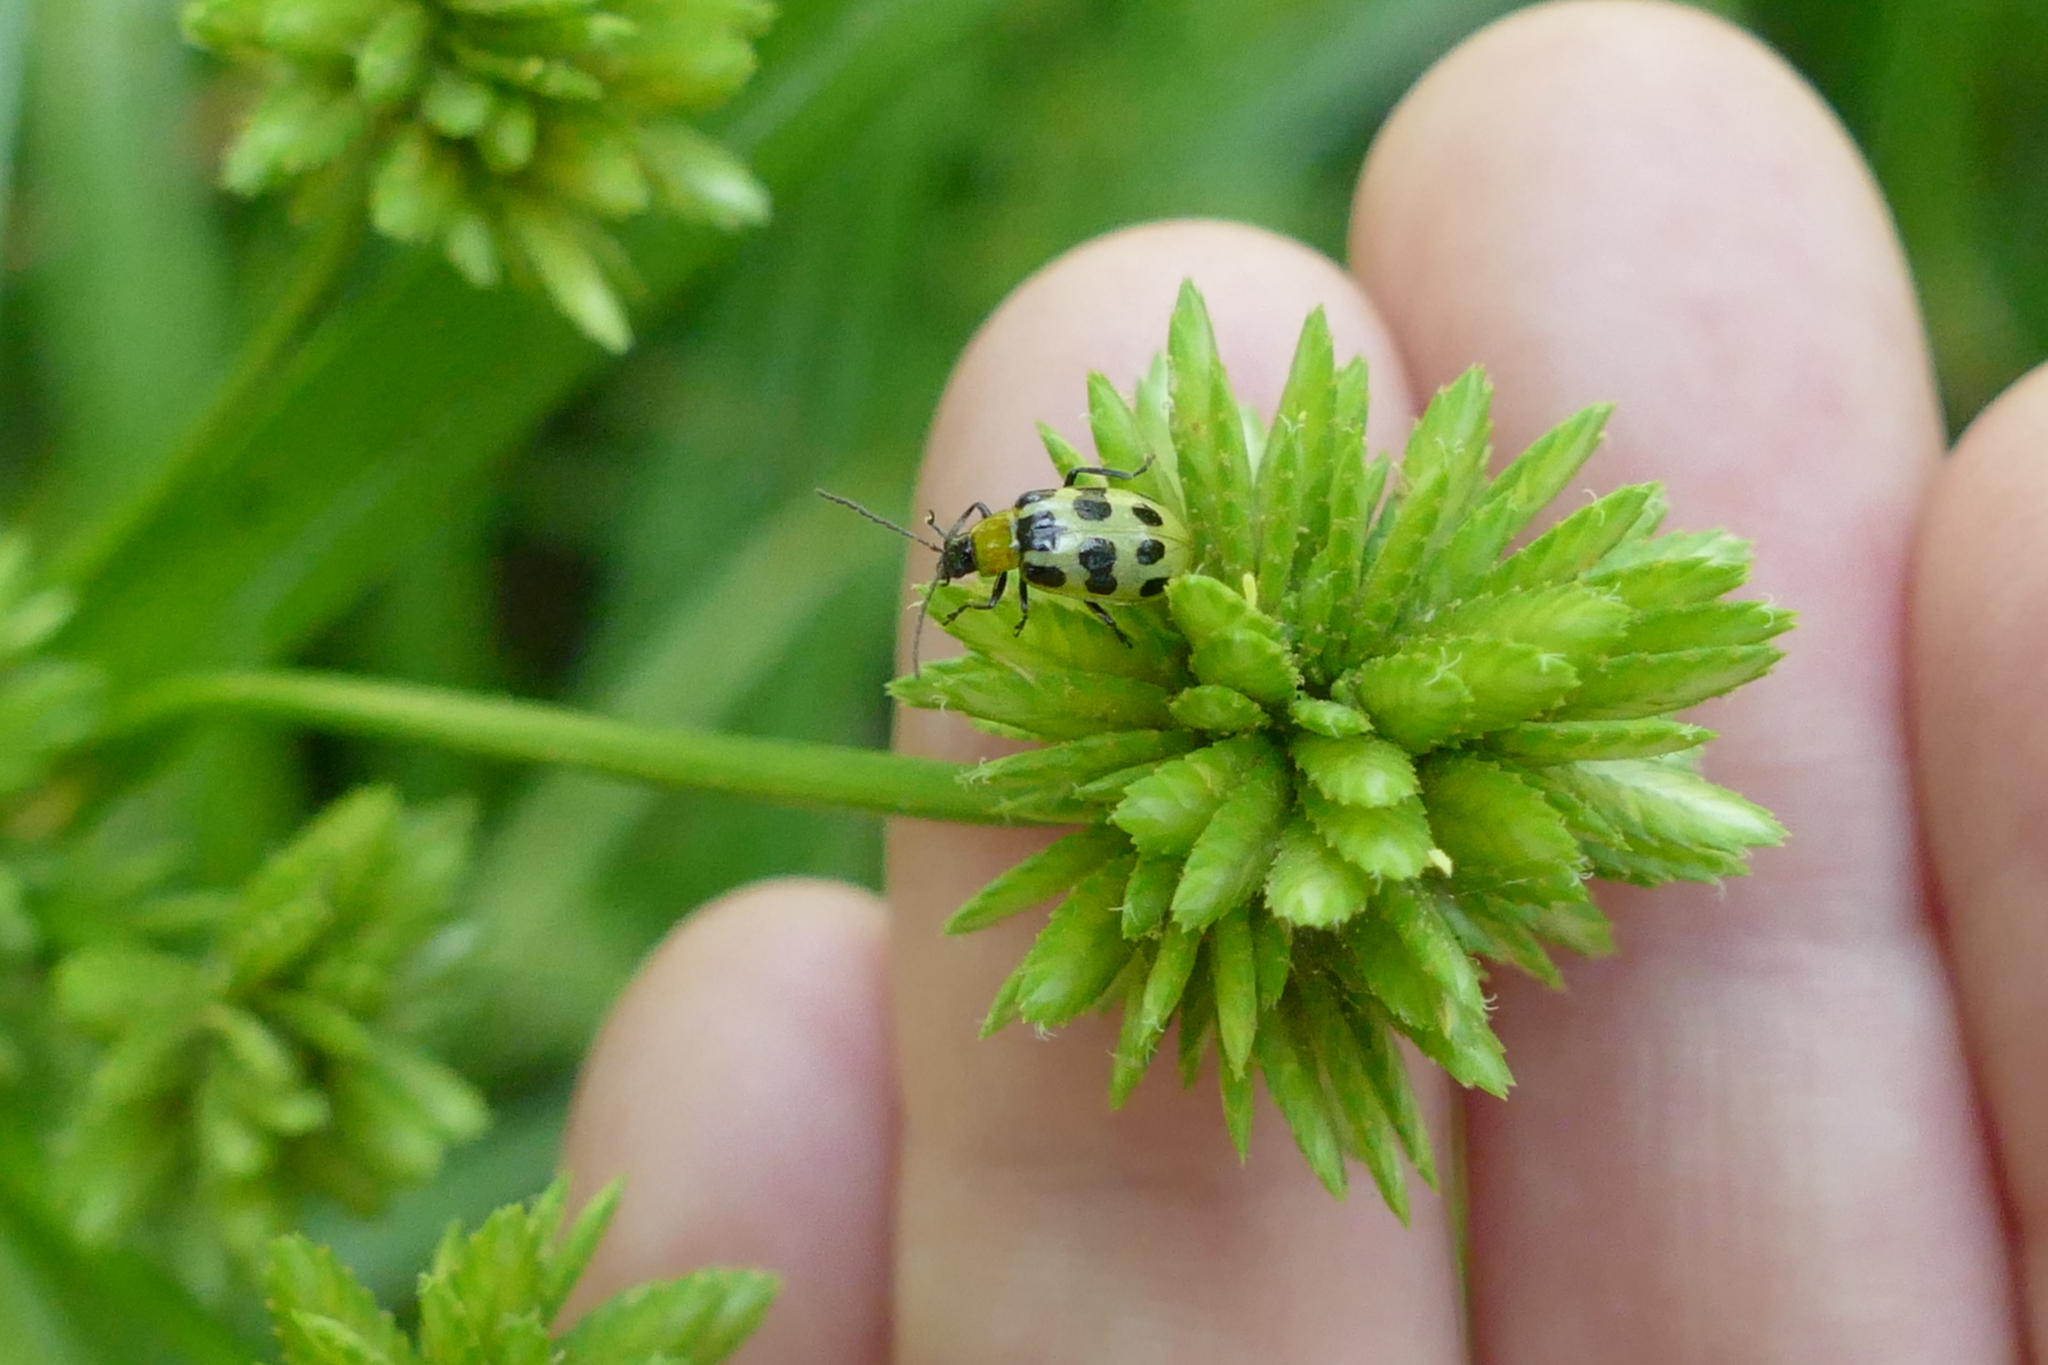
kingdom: Animalia
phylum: Arthropoda
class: Insecta
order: Coleoptera
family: Chrysomelidae
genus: Diabrotica
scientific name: Diabrotica undecimpunctata
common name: Spotted cucumber beetle
